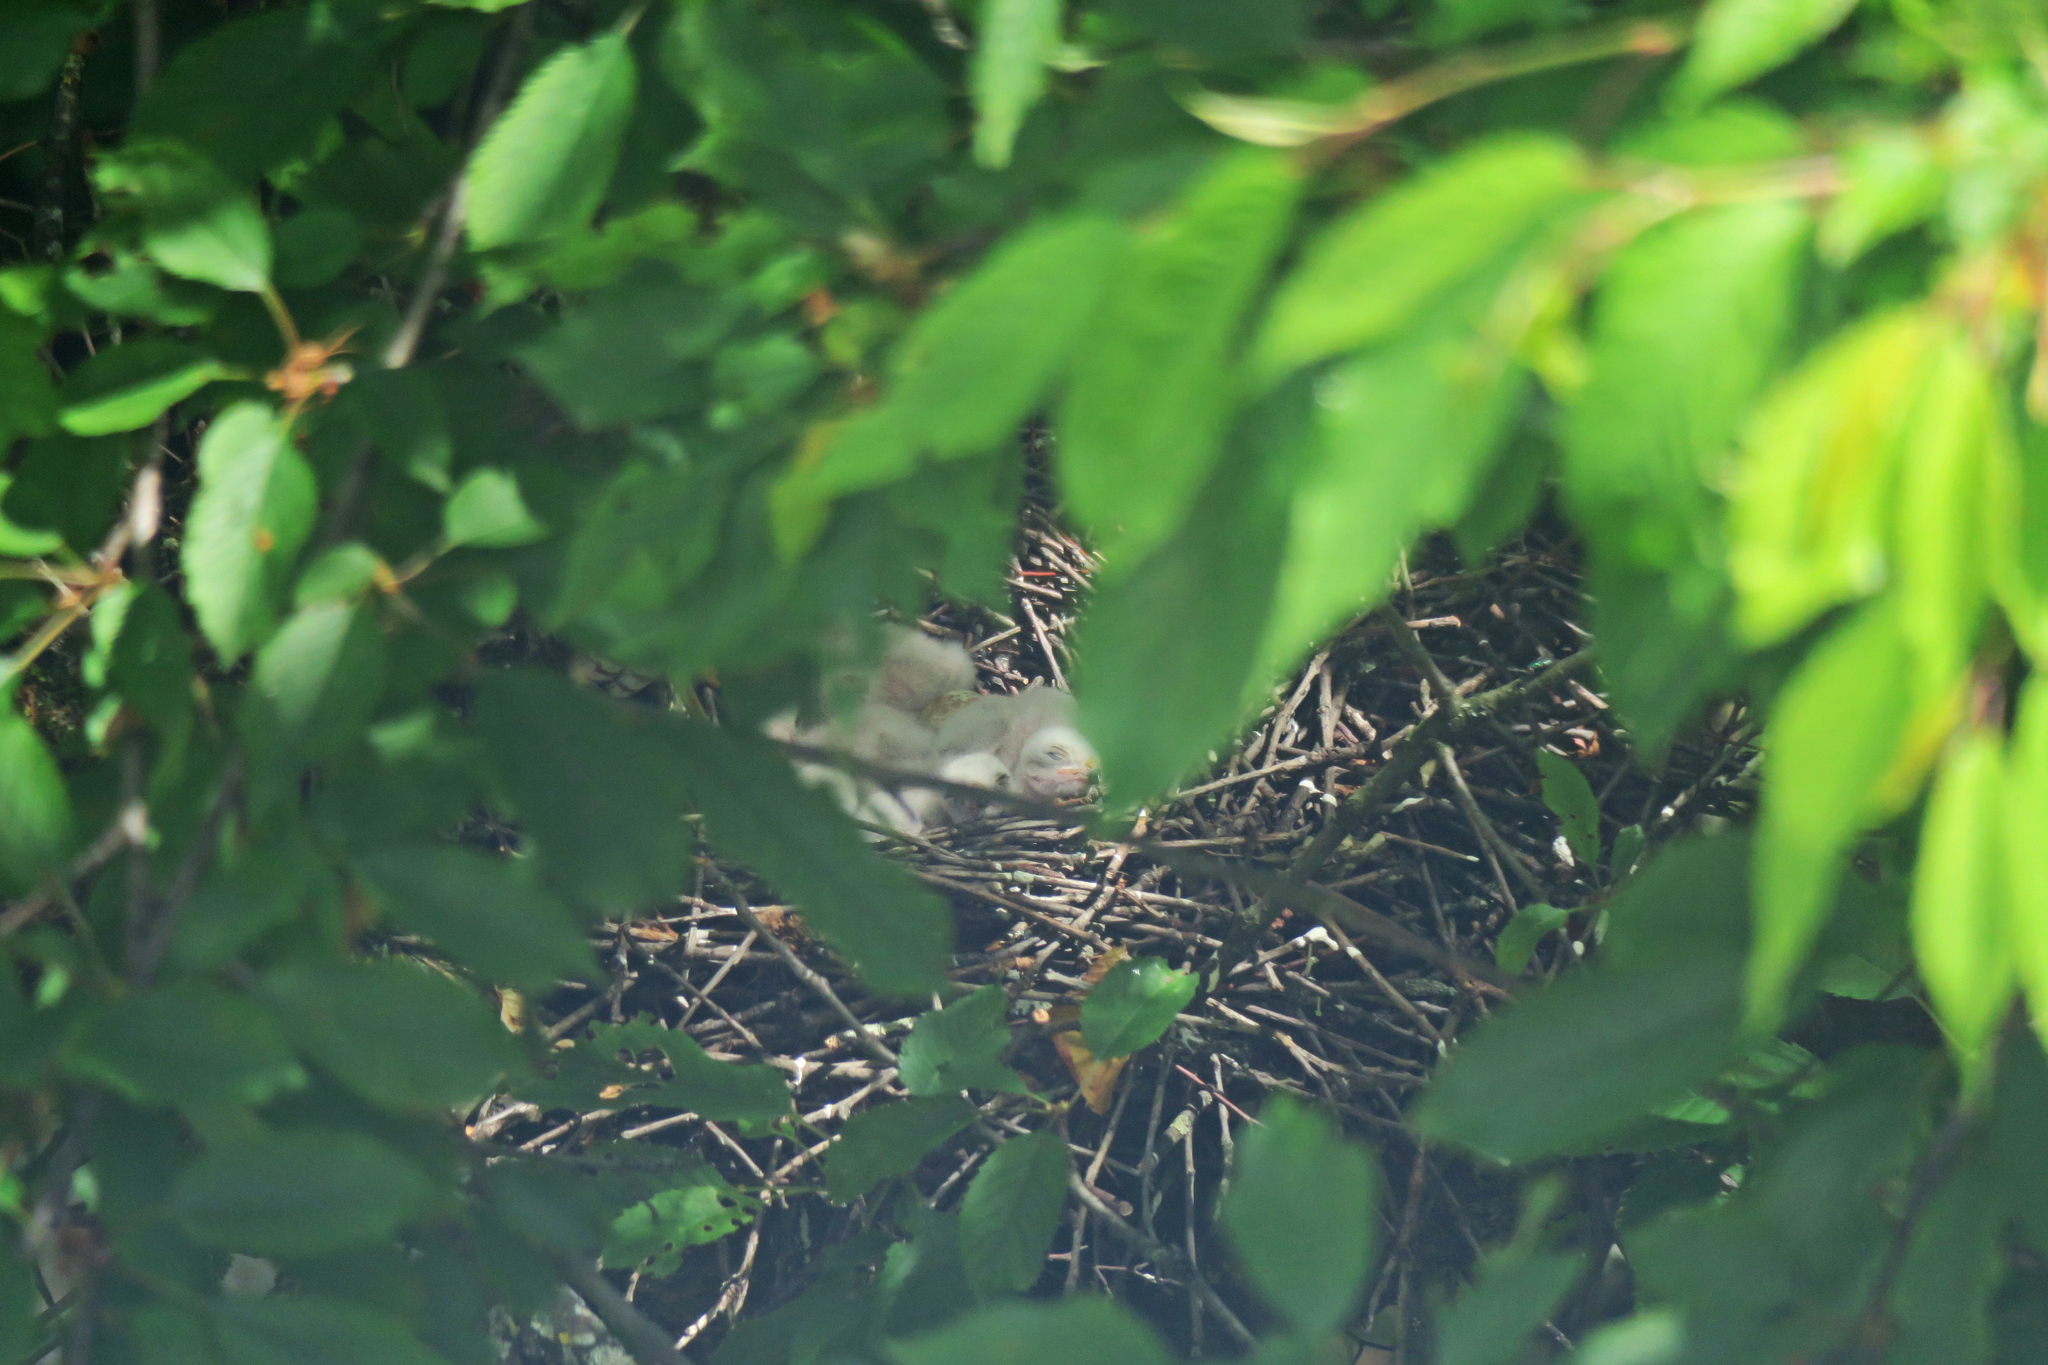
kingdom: Animalia
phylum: Chordata
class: Aves
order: Accipitriformes
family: Accipitridae
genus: Accipiter
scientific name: Accipiter nisus
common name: Eurasian sparrowhawk
